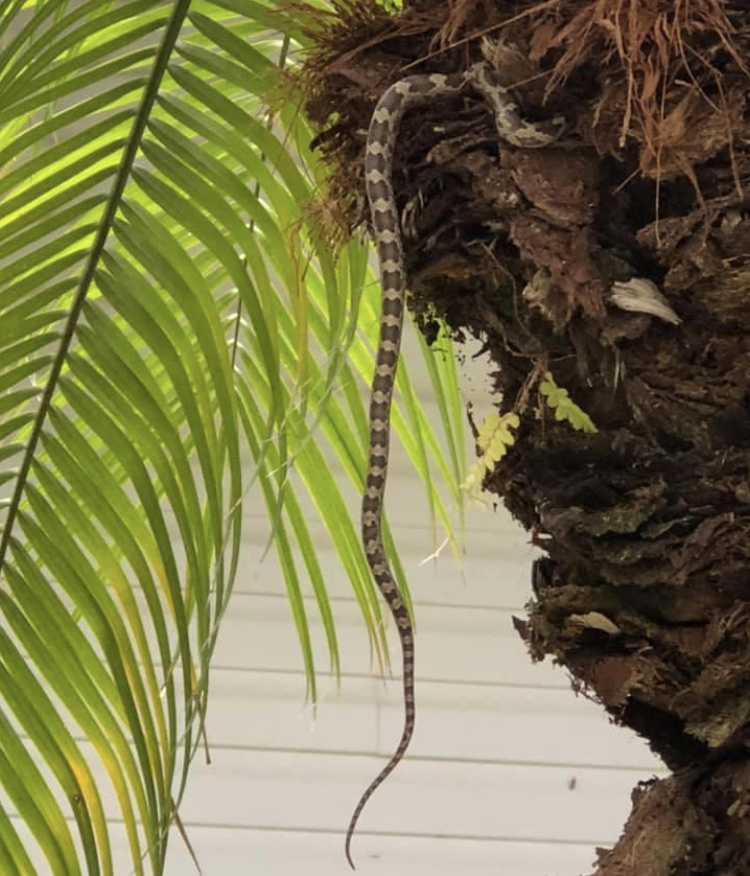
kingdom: Animalia
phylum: Chordata
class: Squamata
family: Colubridae
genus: Pantherophis
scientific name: Pantherophis alleghaniensis
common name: Eastern rat snake
